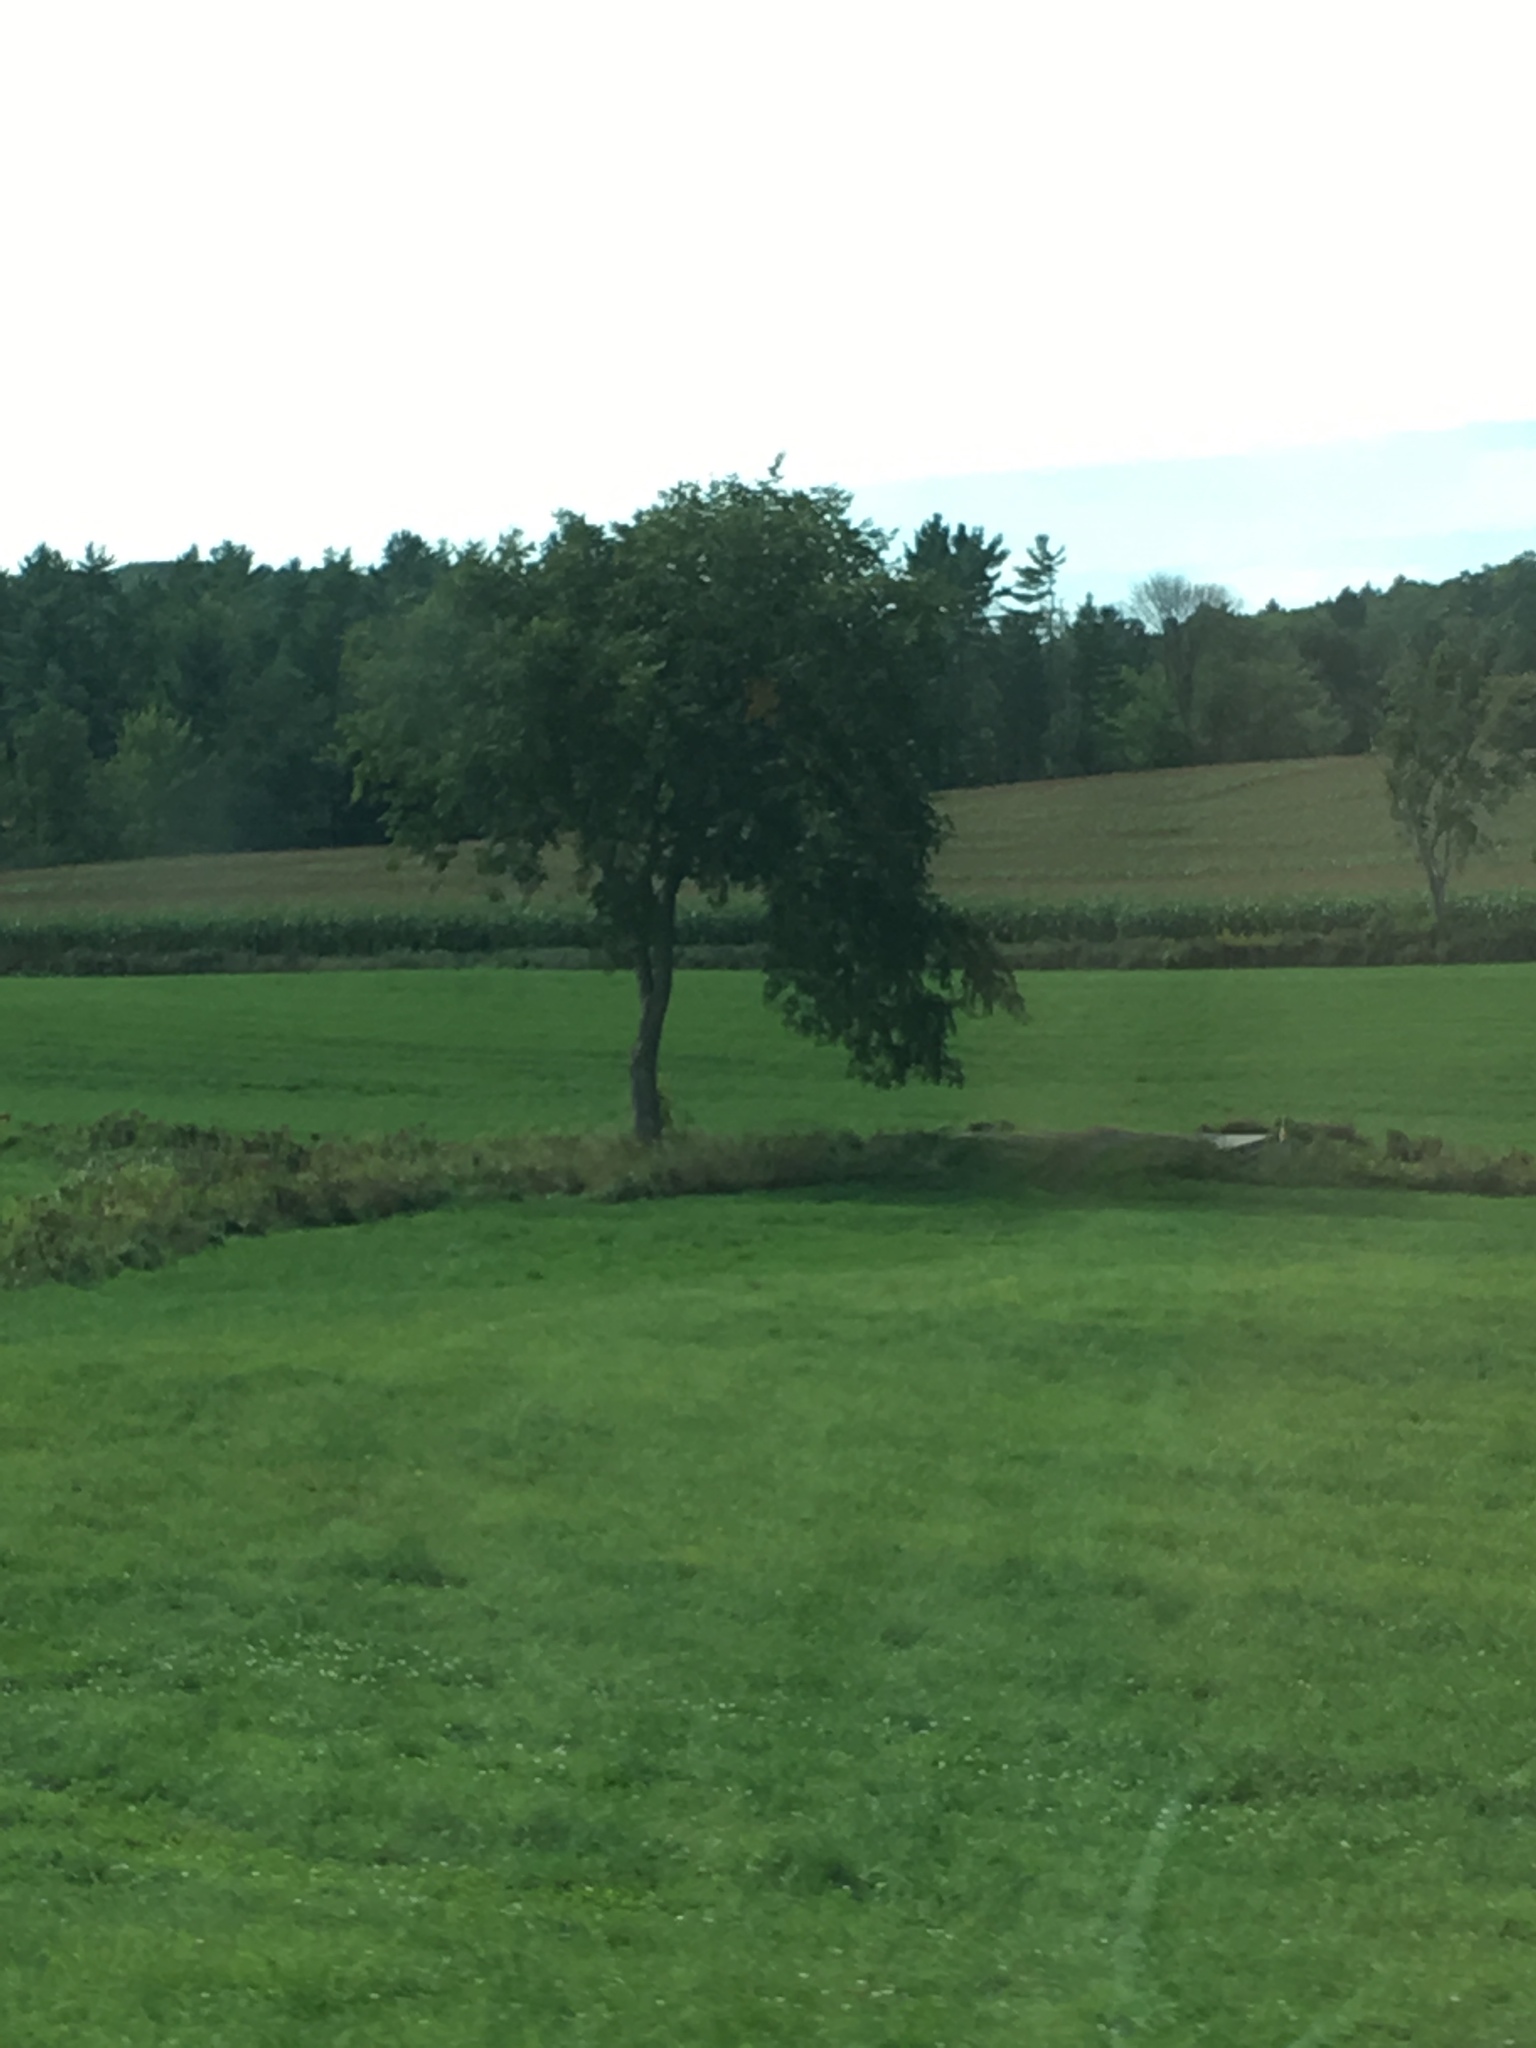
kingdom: Plantae
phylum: Tracheophyta
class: Magnoliopsida
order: Rosales
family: Ulmaceae
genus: Ulmus
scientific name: Ulmus americana
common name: American elm
